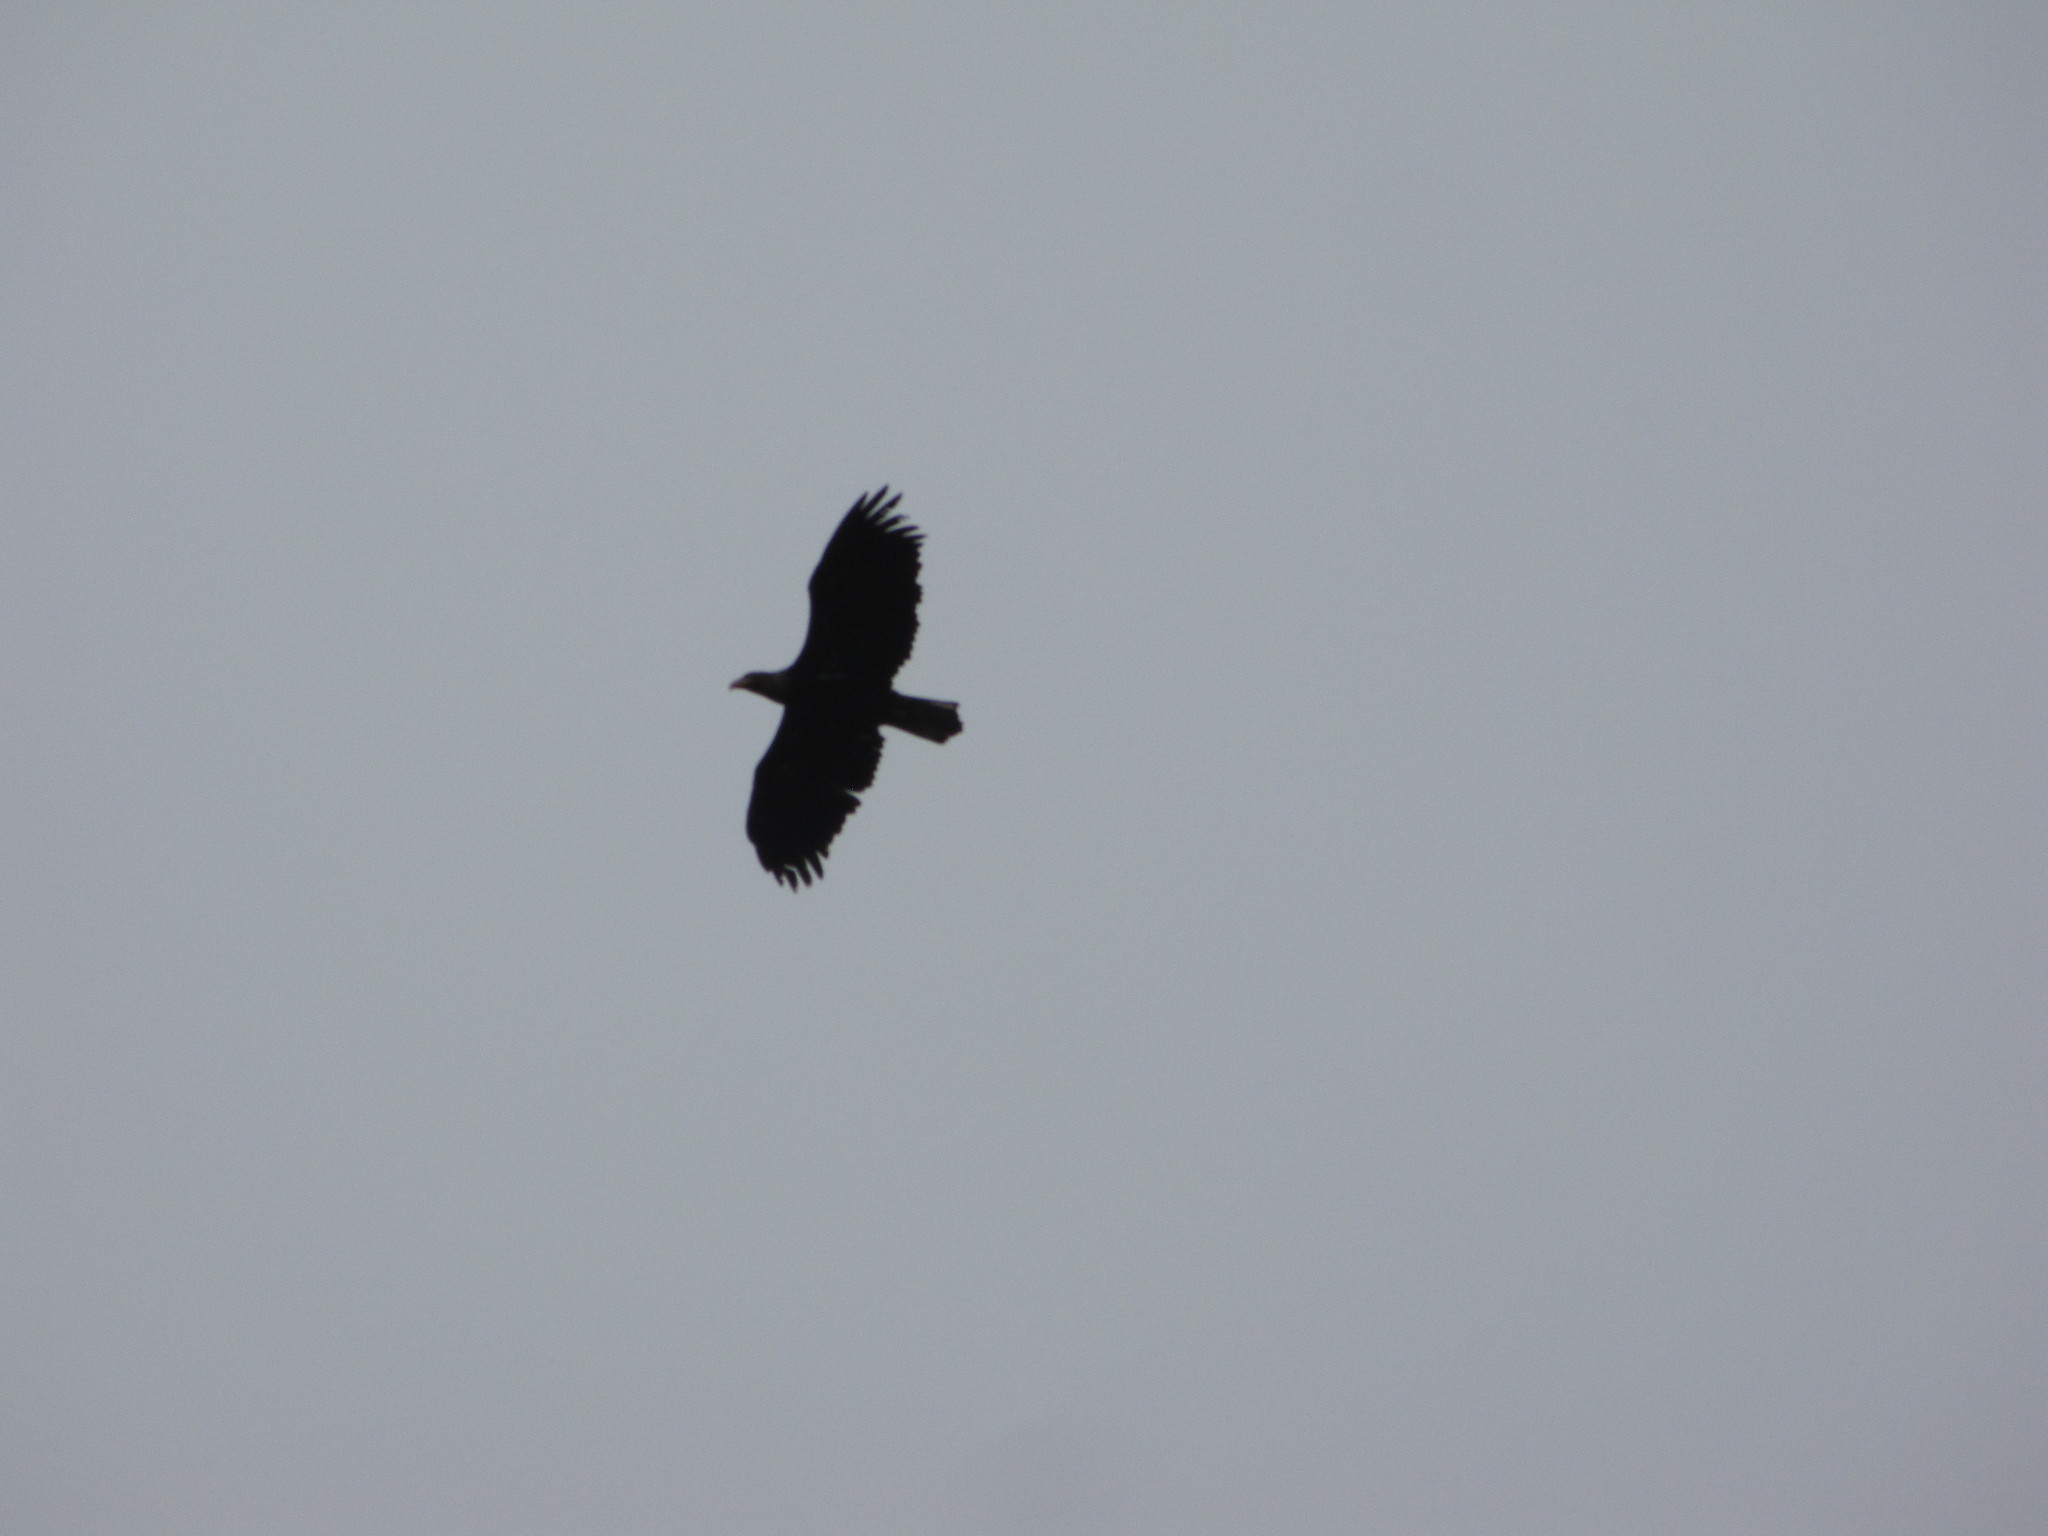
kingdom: Animalia
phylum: Chordata
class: Aves
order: Accipitriformes
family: Accipitridae
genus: Haliaeetus
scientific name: Haliaeetus leucocephalus
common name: Bald eagle
